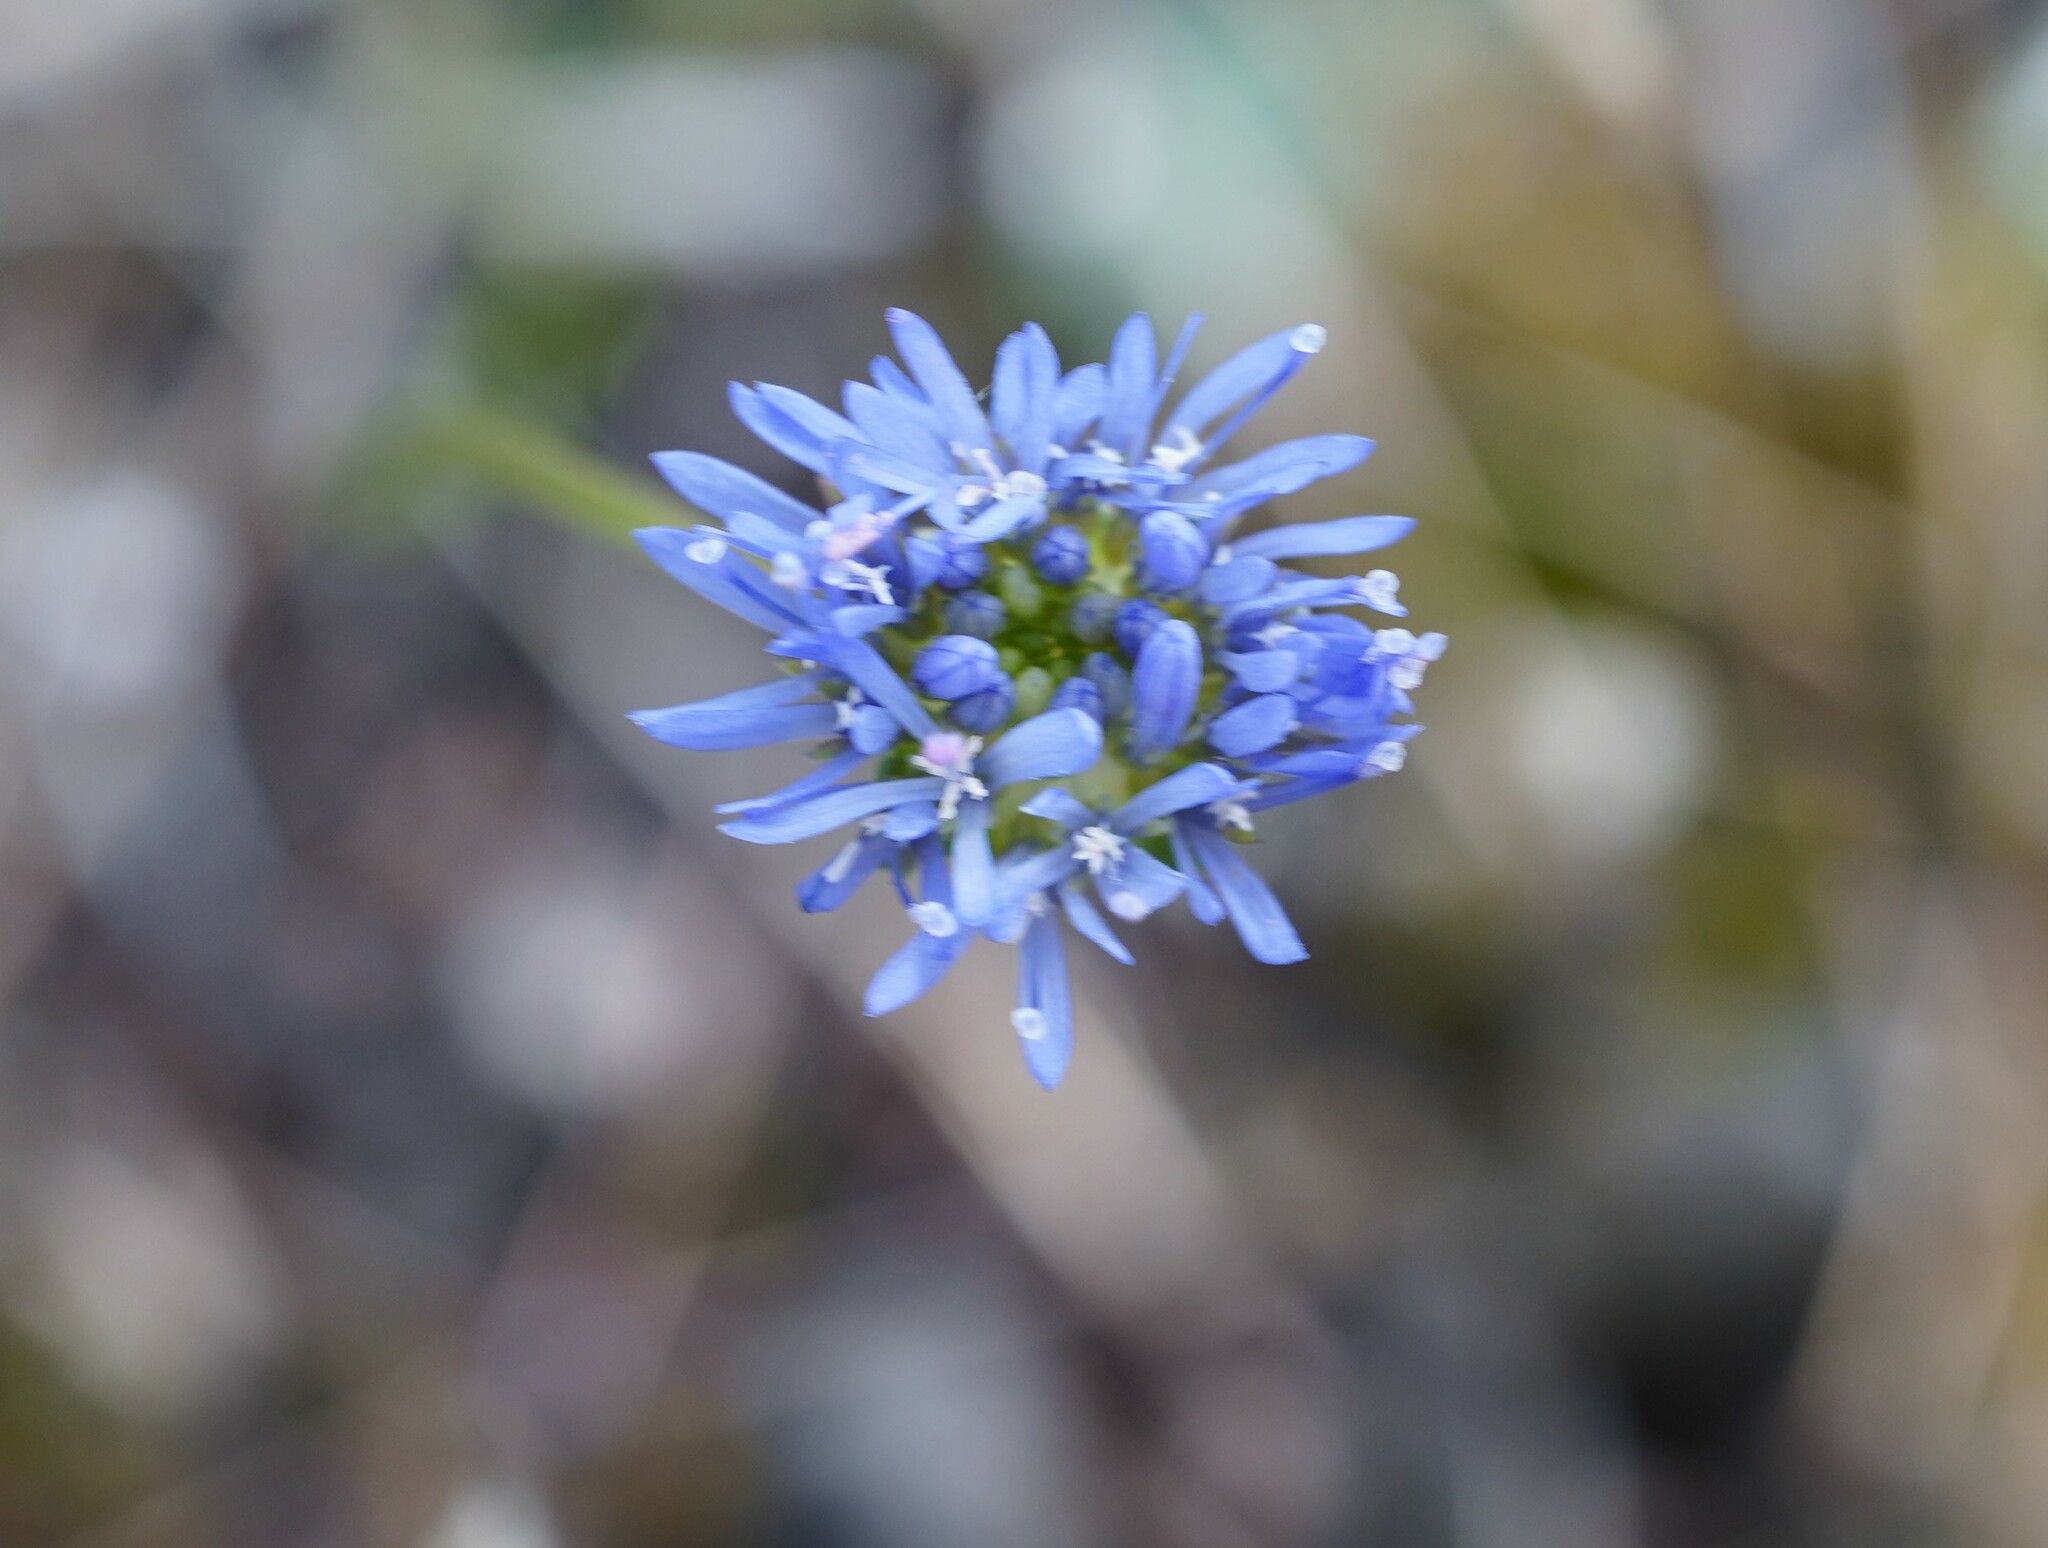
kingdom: Plantae
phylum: Tracheophyta
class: Magnoliopsida
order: Asterales
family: Campanulaceae
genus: Jasione
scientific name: Jasione montana
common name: Sheep's-bit
